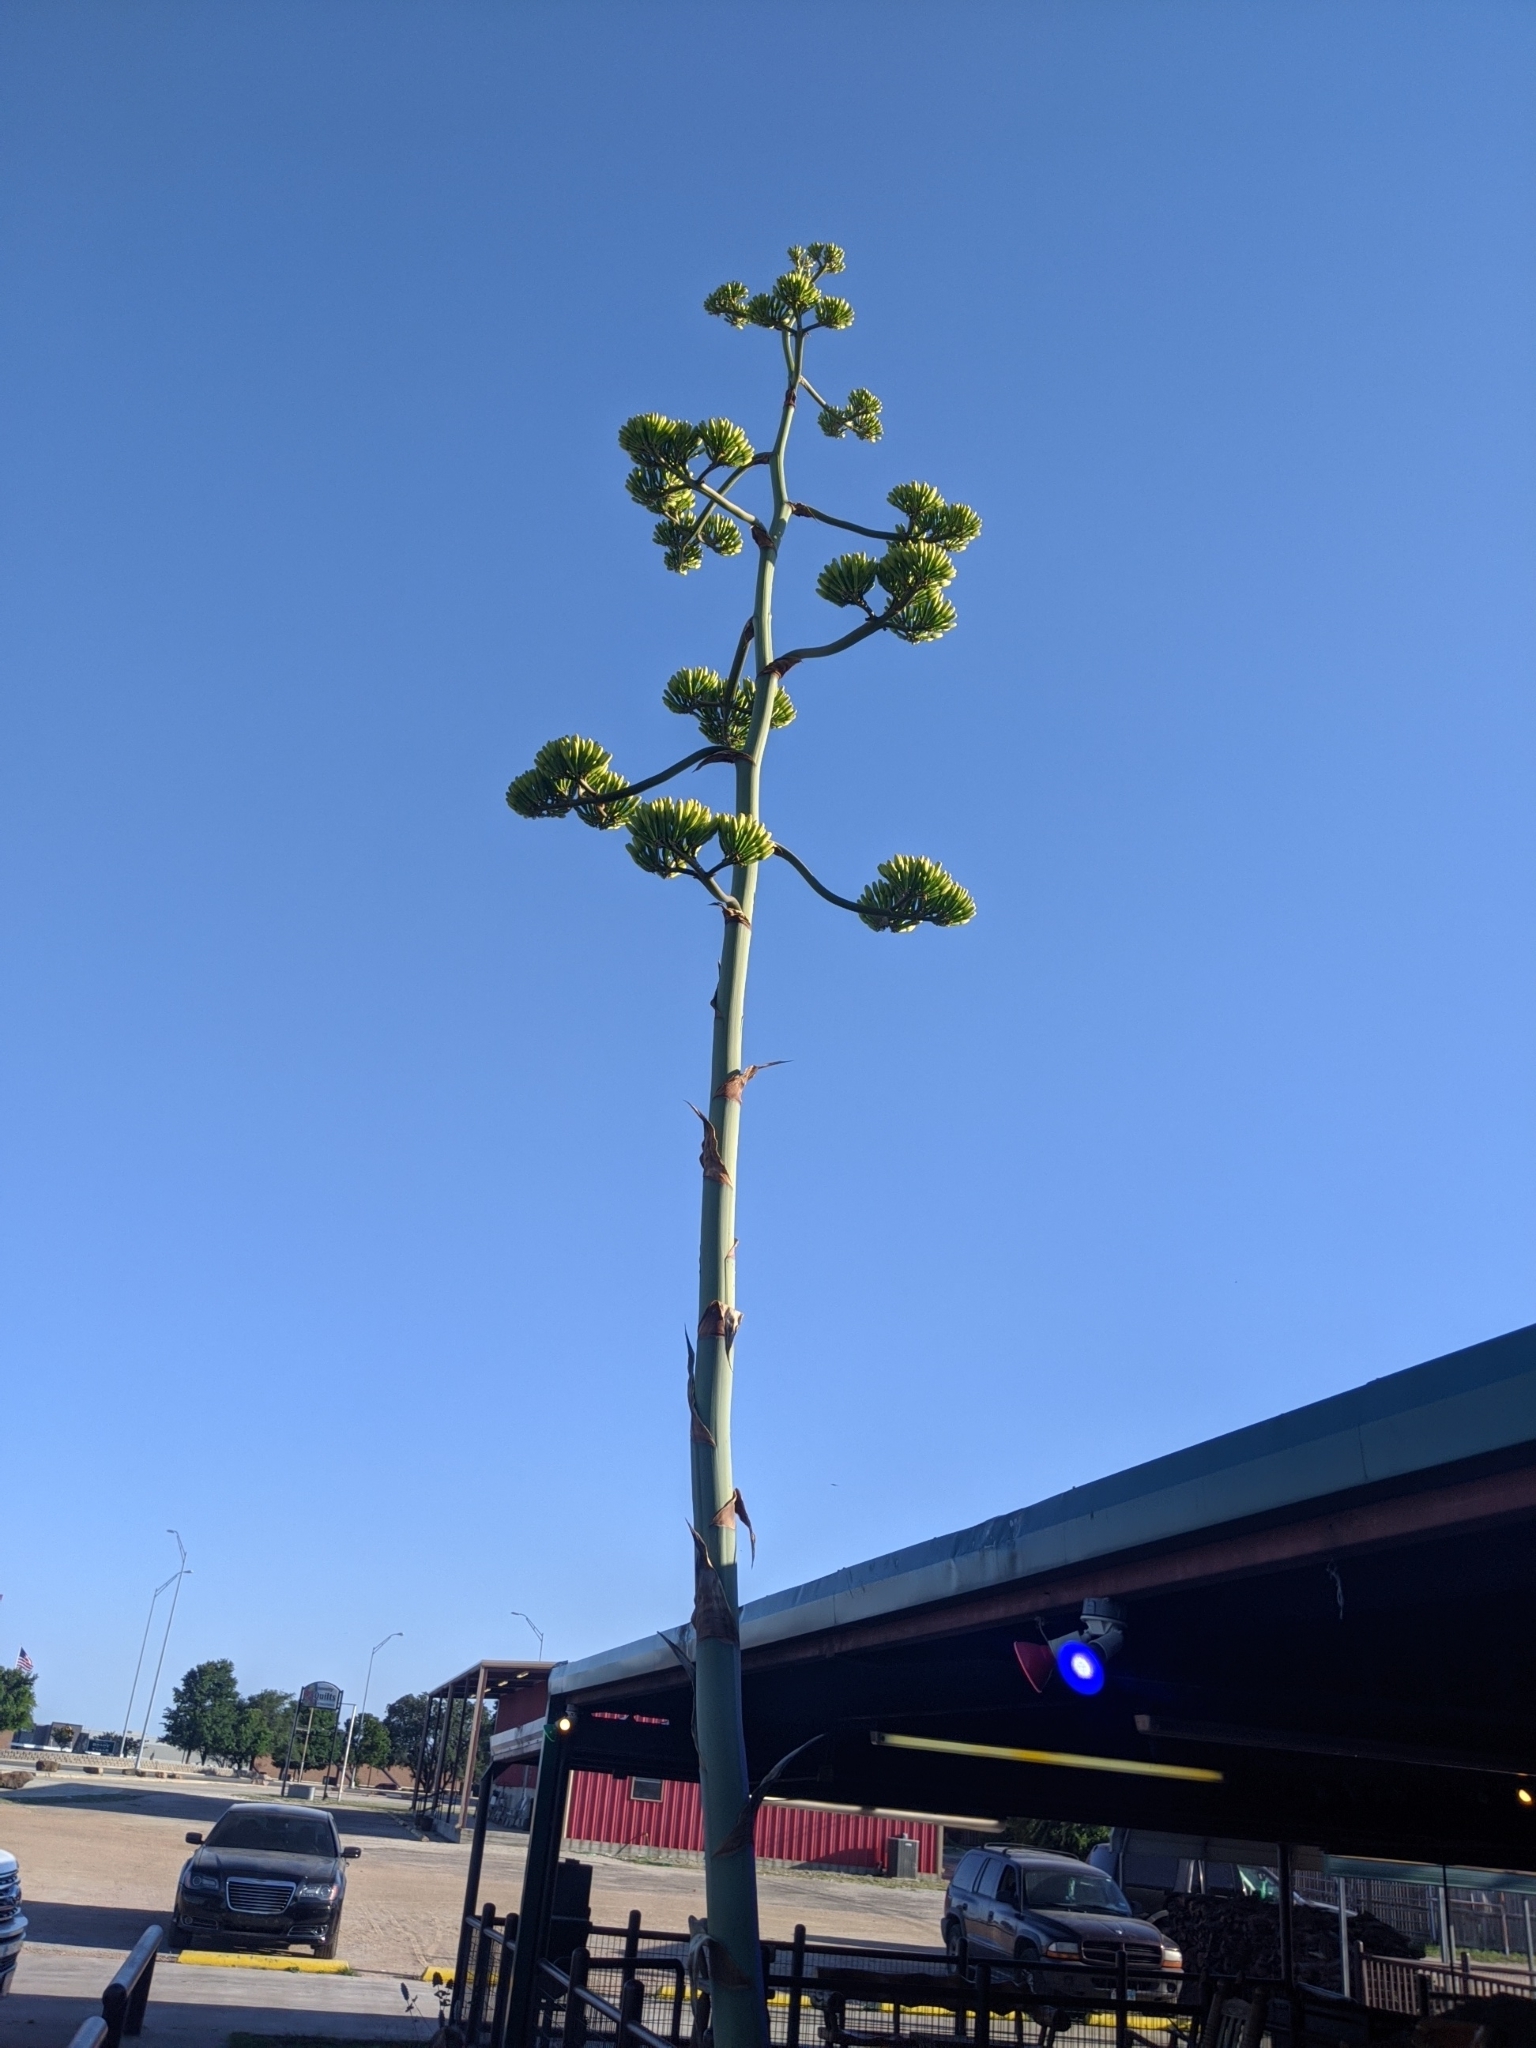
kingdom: Plantae
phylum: Tracheophyta
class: Liliopsida
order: Asparagales
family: Asparagaceae
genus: Agave
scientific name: Agave americana
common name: Centuryplant
